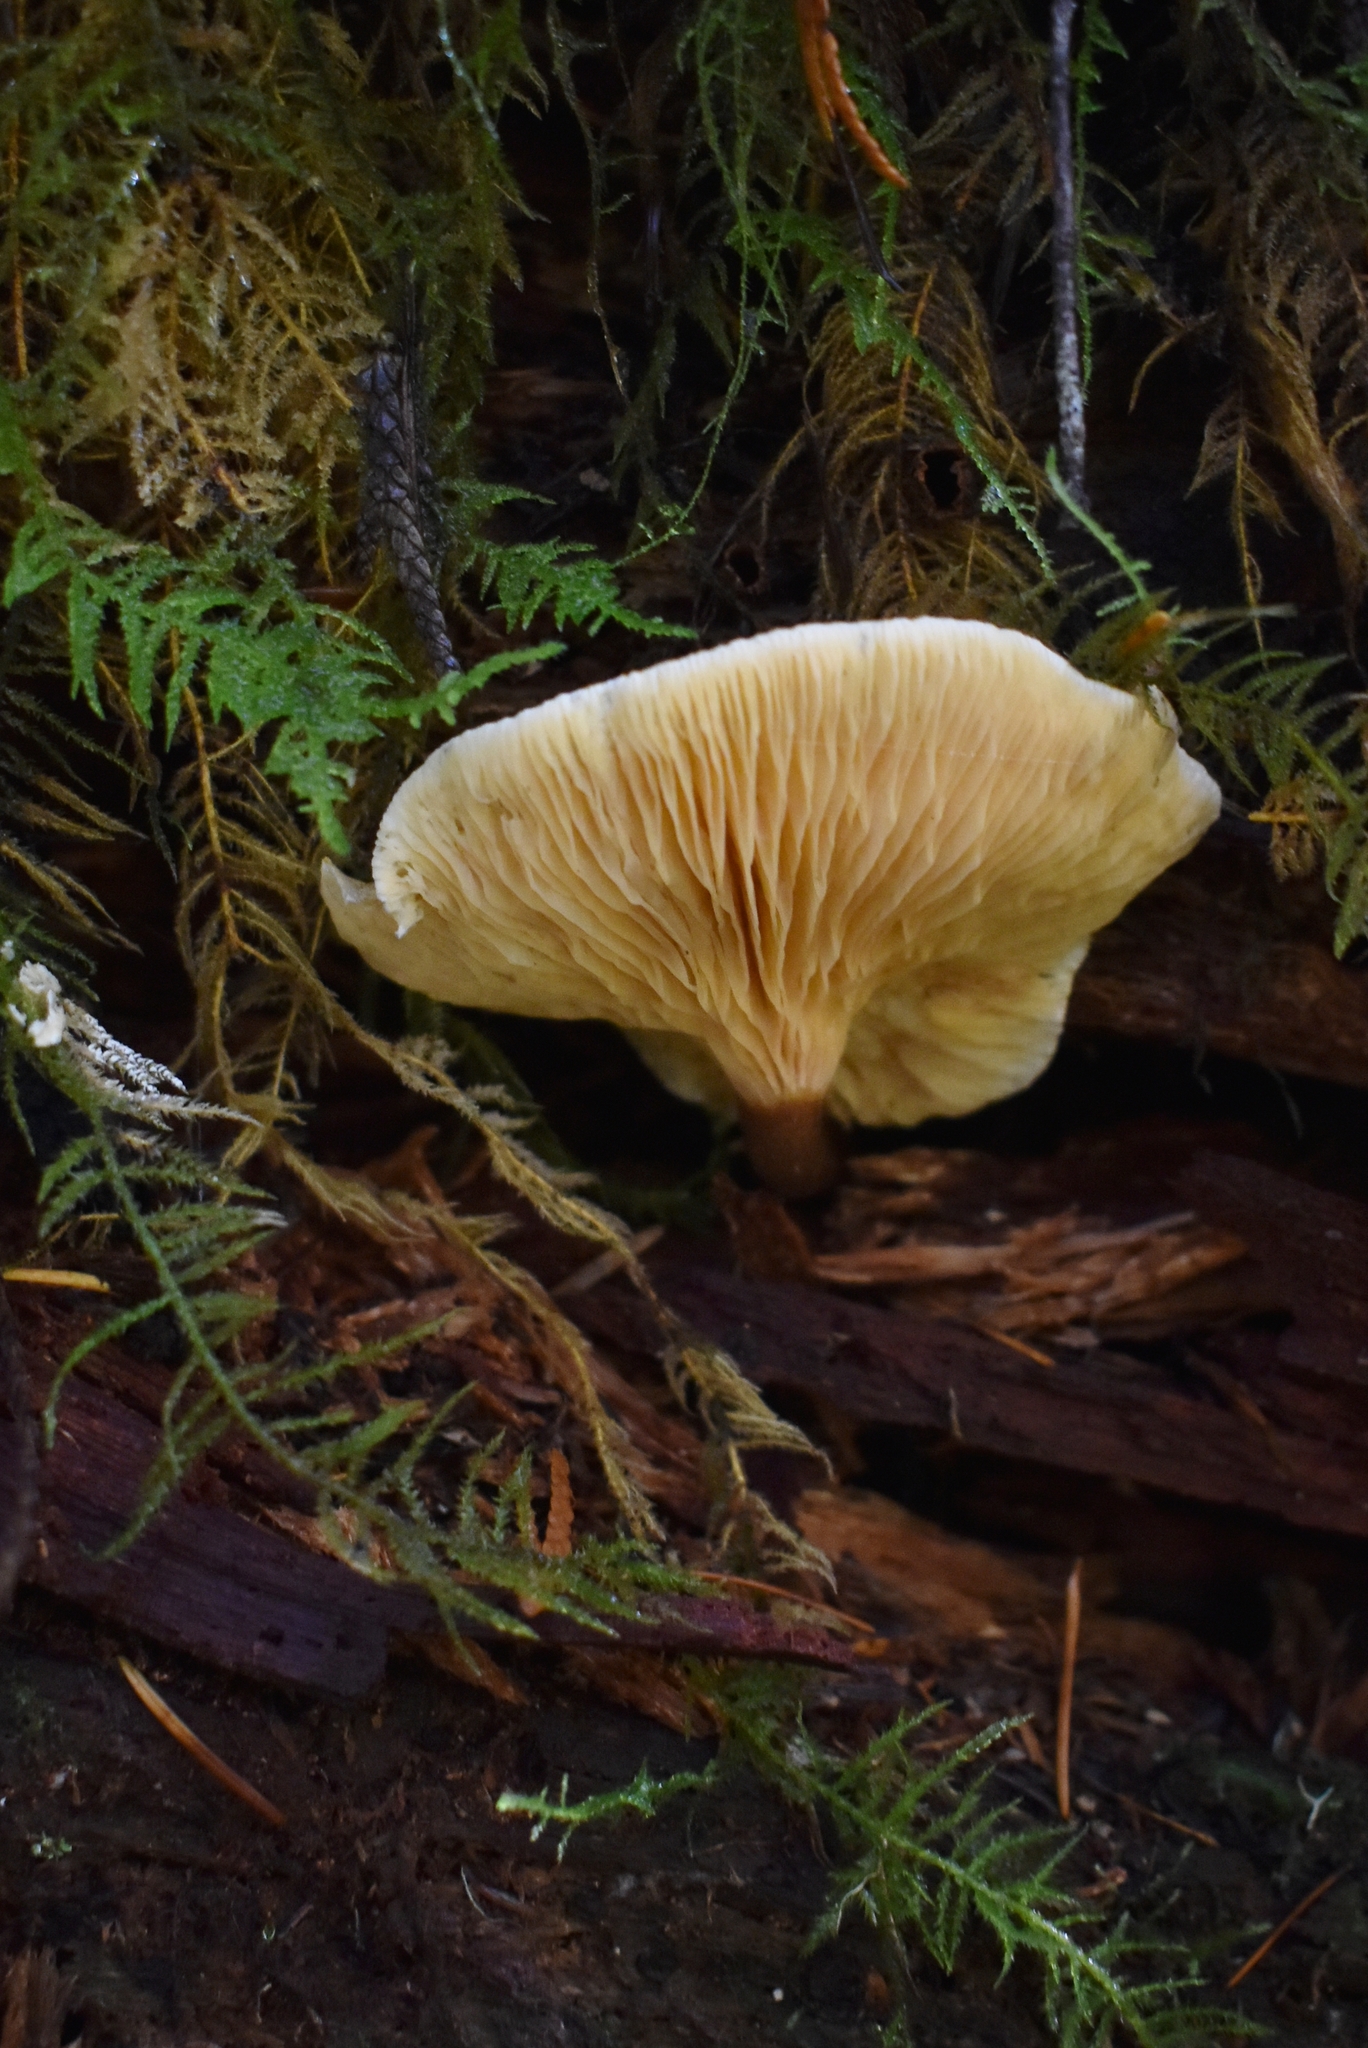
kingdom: Fungi
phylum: Basidiomycota
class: Agaricomycetes
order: Boletales
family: Hygrophoropsidaceae
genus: Hygrophoropsis
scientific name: Hygrophoropsis aurantiaca
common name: False chanterelle
